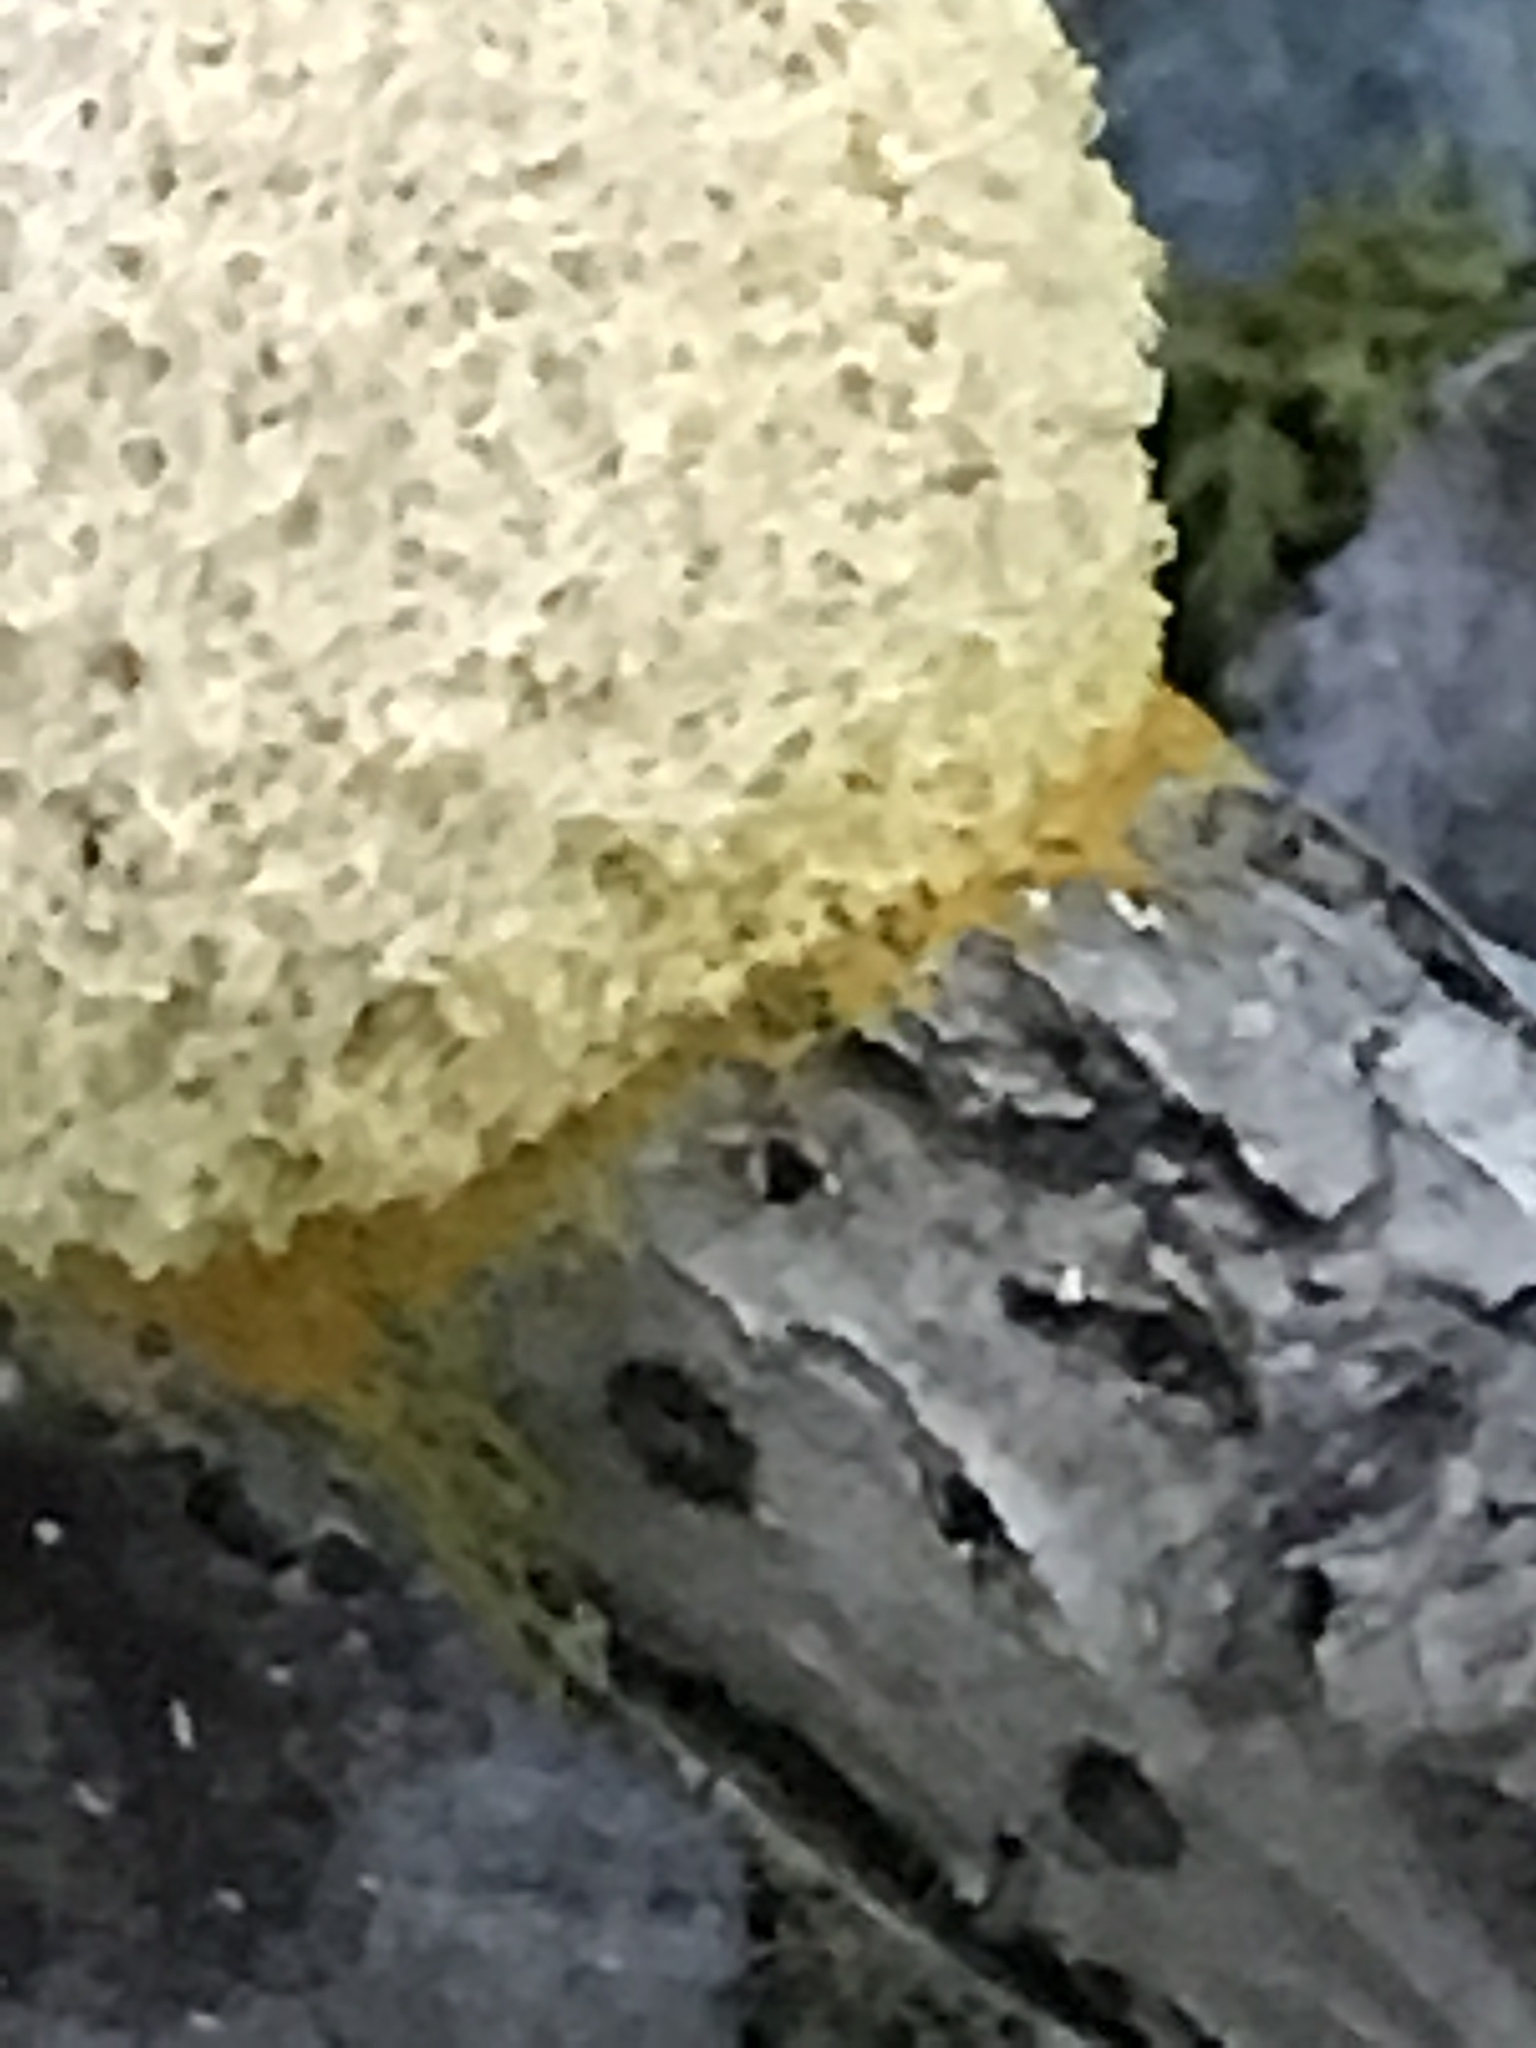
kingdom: Protozoa
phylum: Mycetozoa
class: Myxomycetes
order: Physarales
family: Physaraceae
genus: Fuligo
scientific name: Fuligo septica
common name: Dog vomit slime mold
